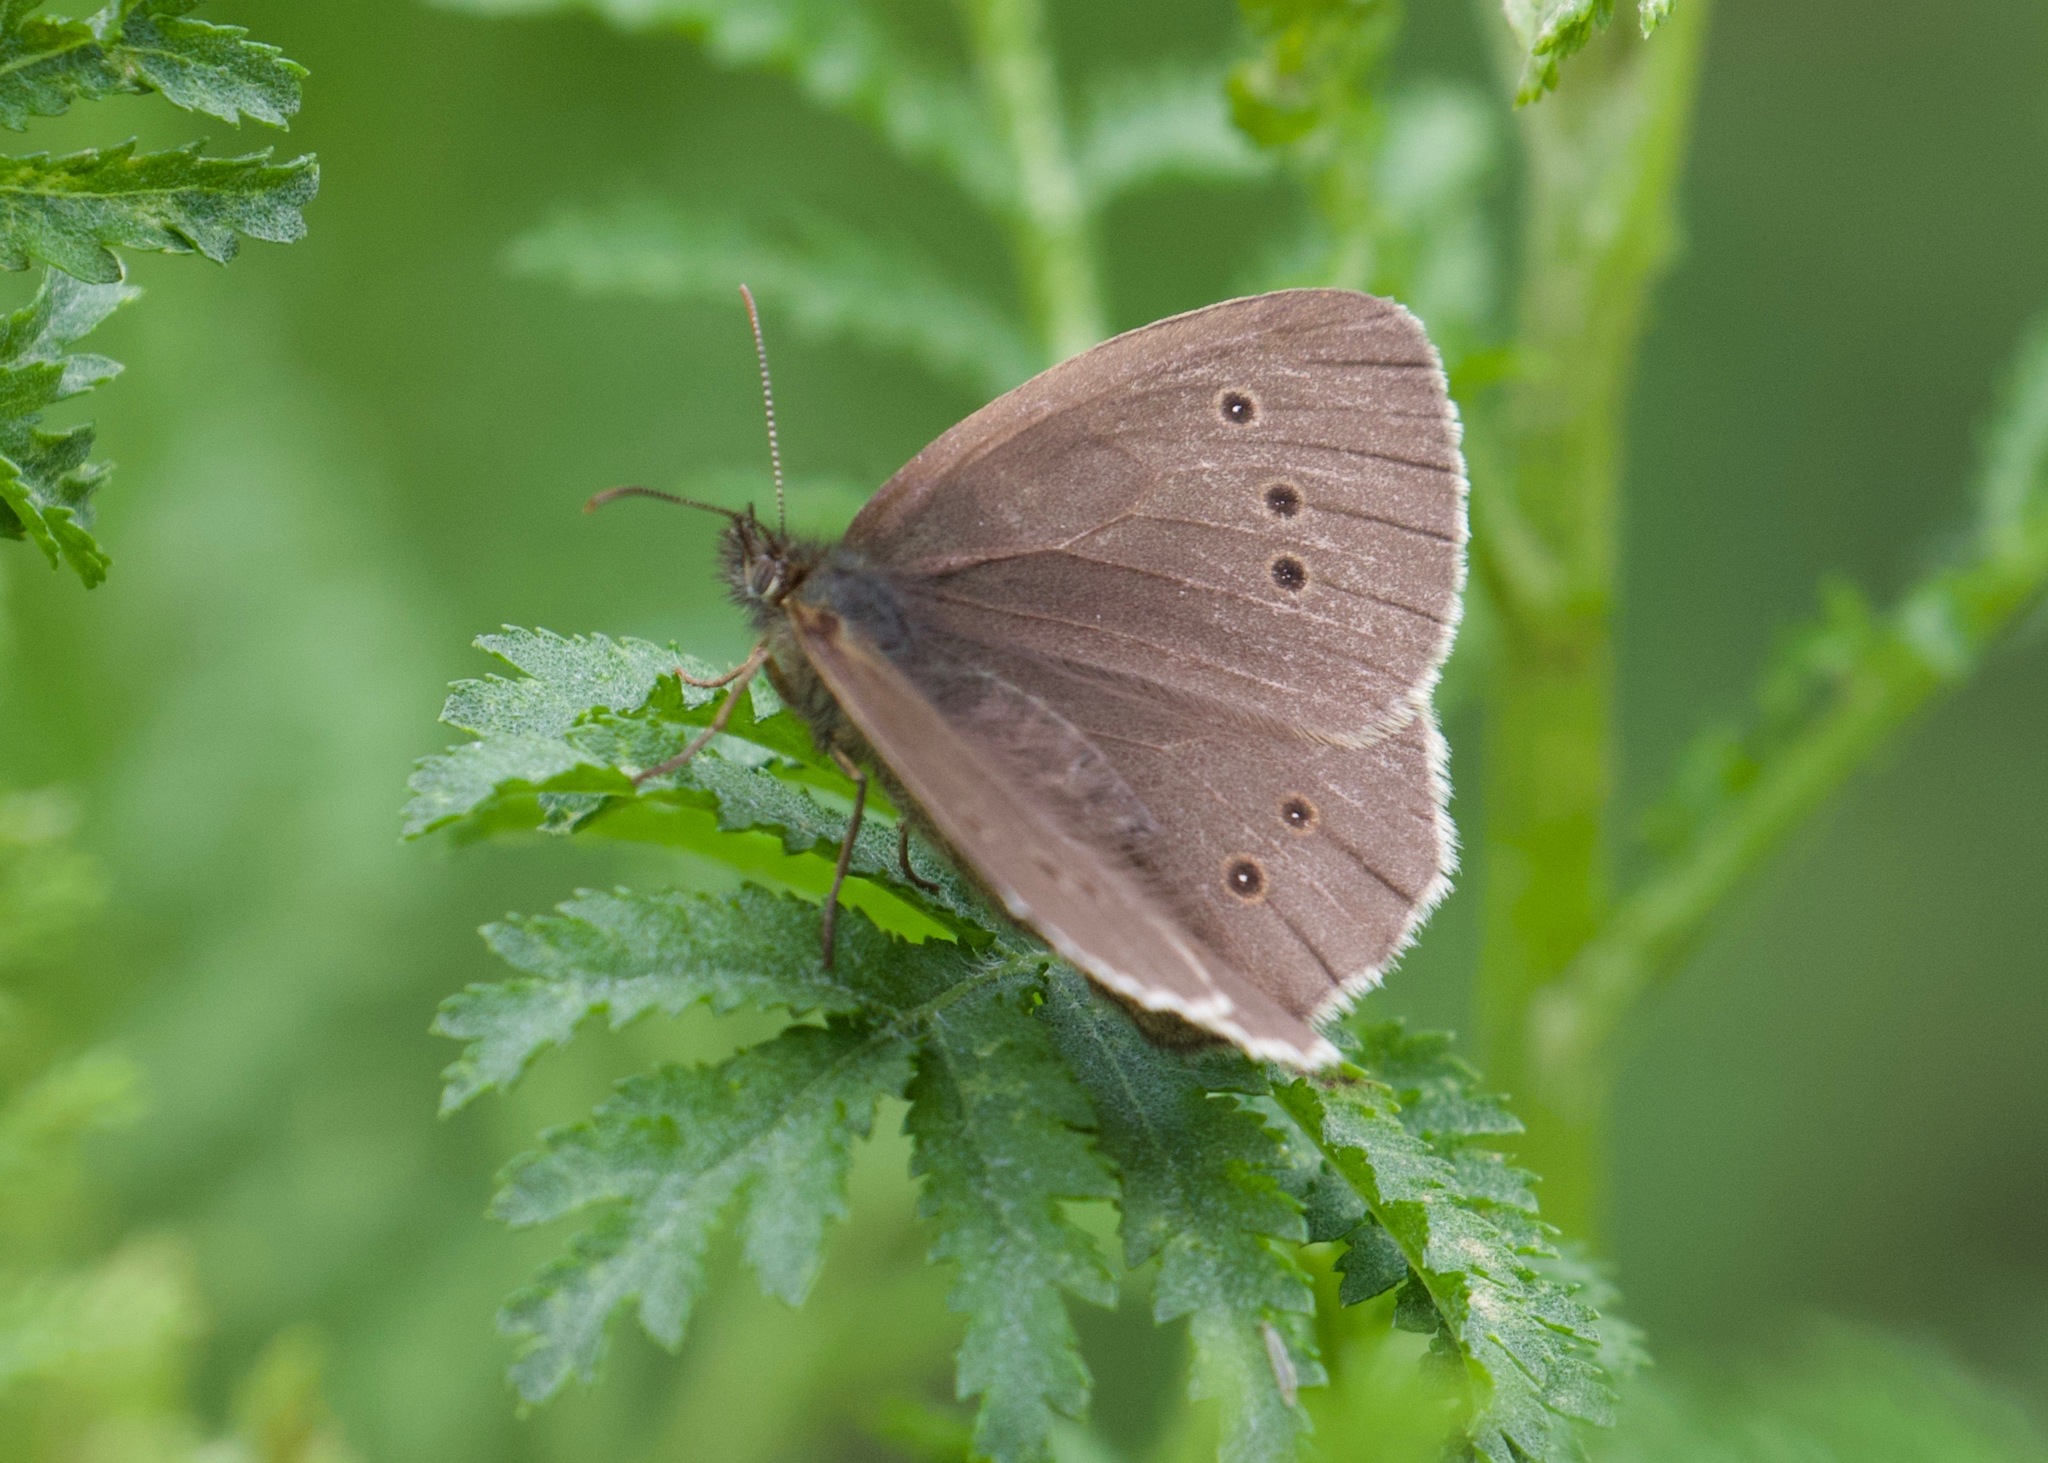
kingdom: Animalia
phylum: Arthropoda
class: Insecta
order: Lepidoptera
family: Nymphalidae
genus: Aphantopus
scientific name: Aphantopus hyperantus
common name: Ringlet
